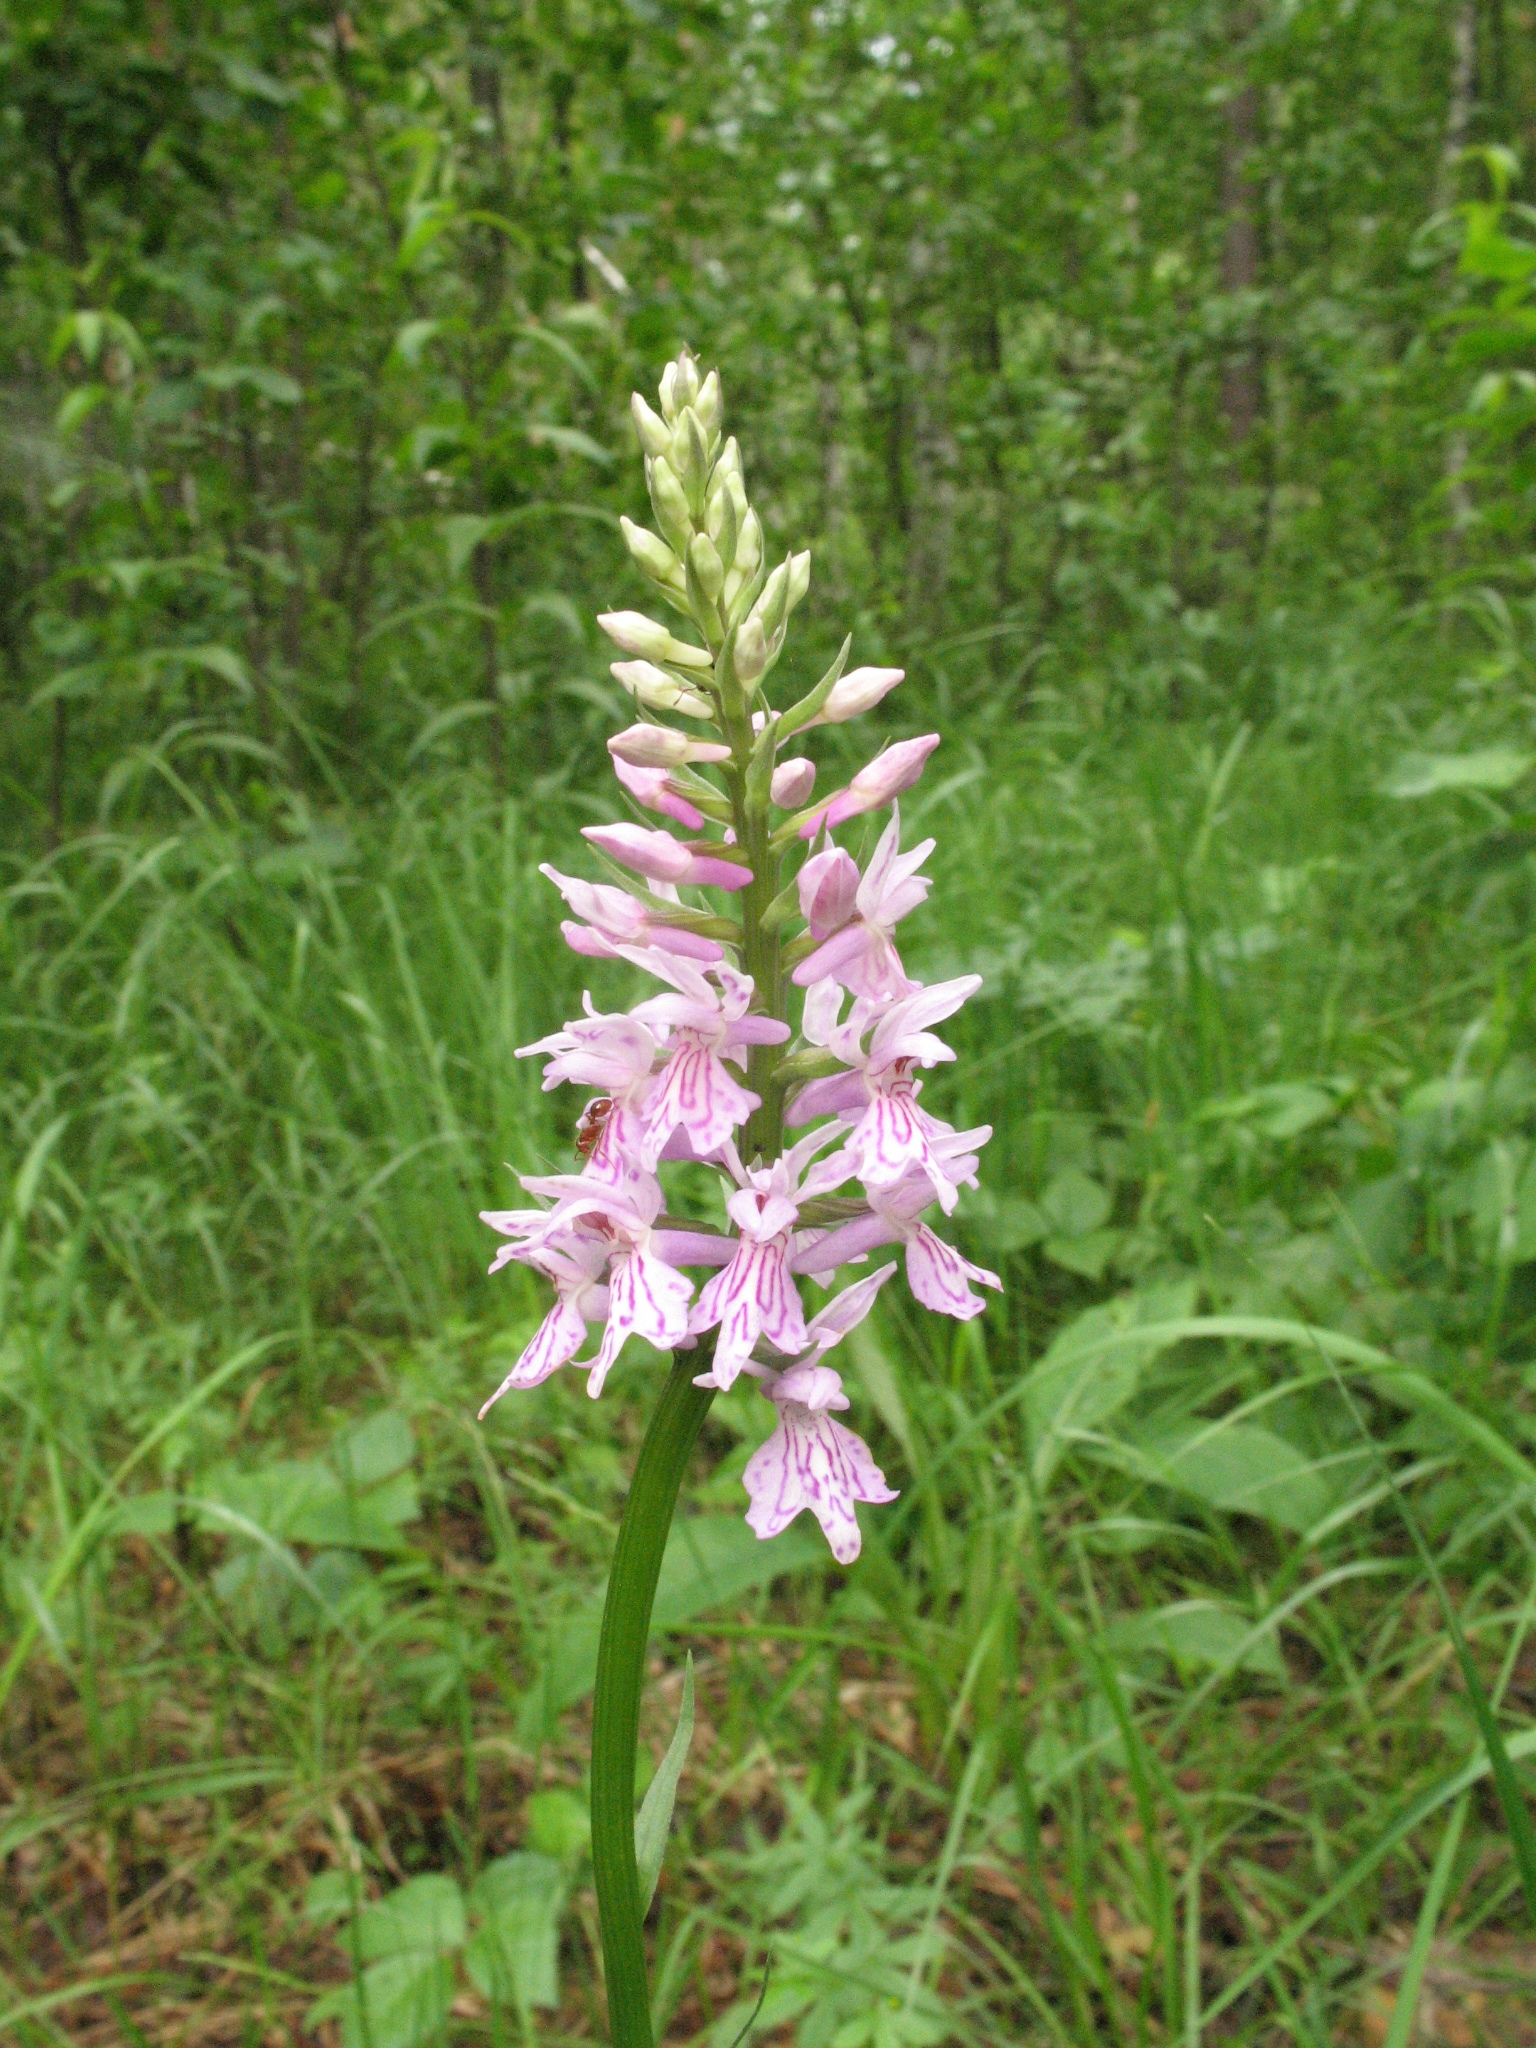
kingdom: Plantae
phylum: Tracheophyta
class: Liliopsida
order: Asparagales
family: Orchidaceae
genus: Dactylorhiza
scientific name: Dactylorhiza maculata
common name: Heath spotted-orchid
